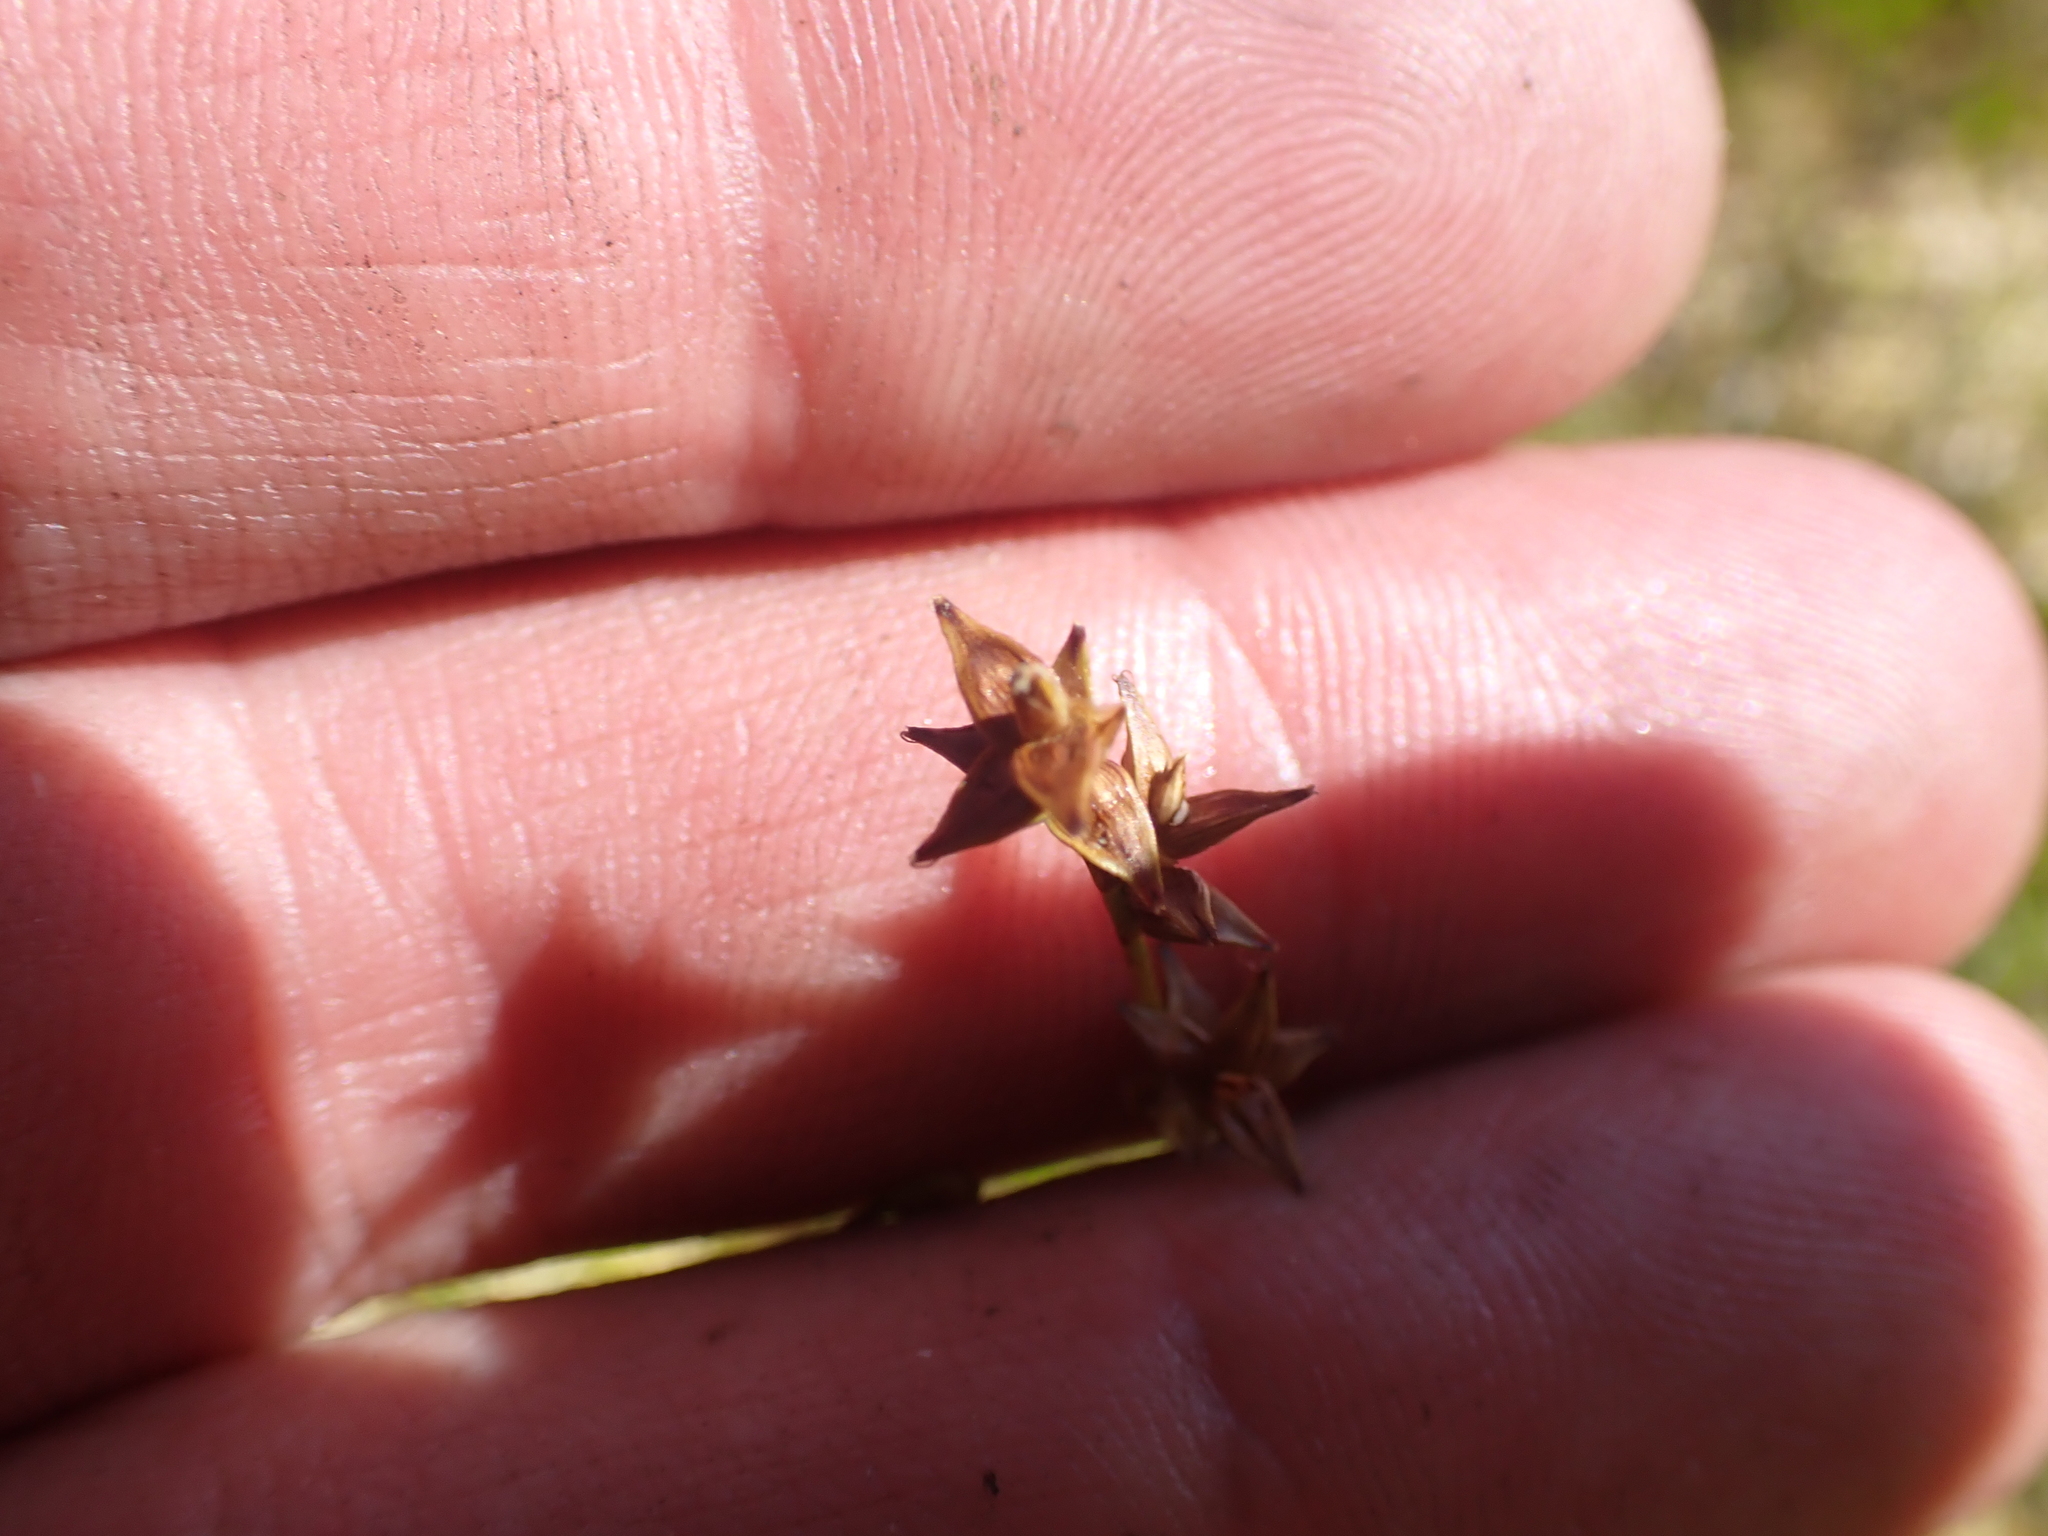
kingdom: Plantae
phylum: Tracheophyta
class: Liliopsida
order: Poales
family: Cyperaceae
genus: Carex
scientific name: Carex echinata
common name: Star sedge
